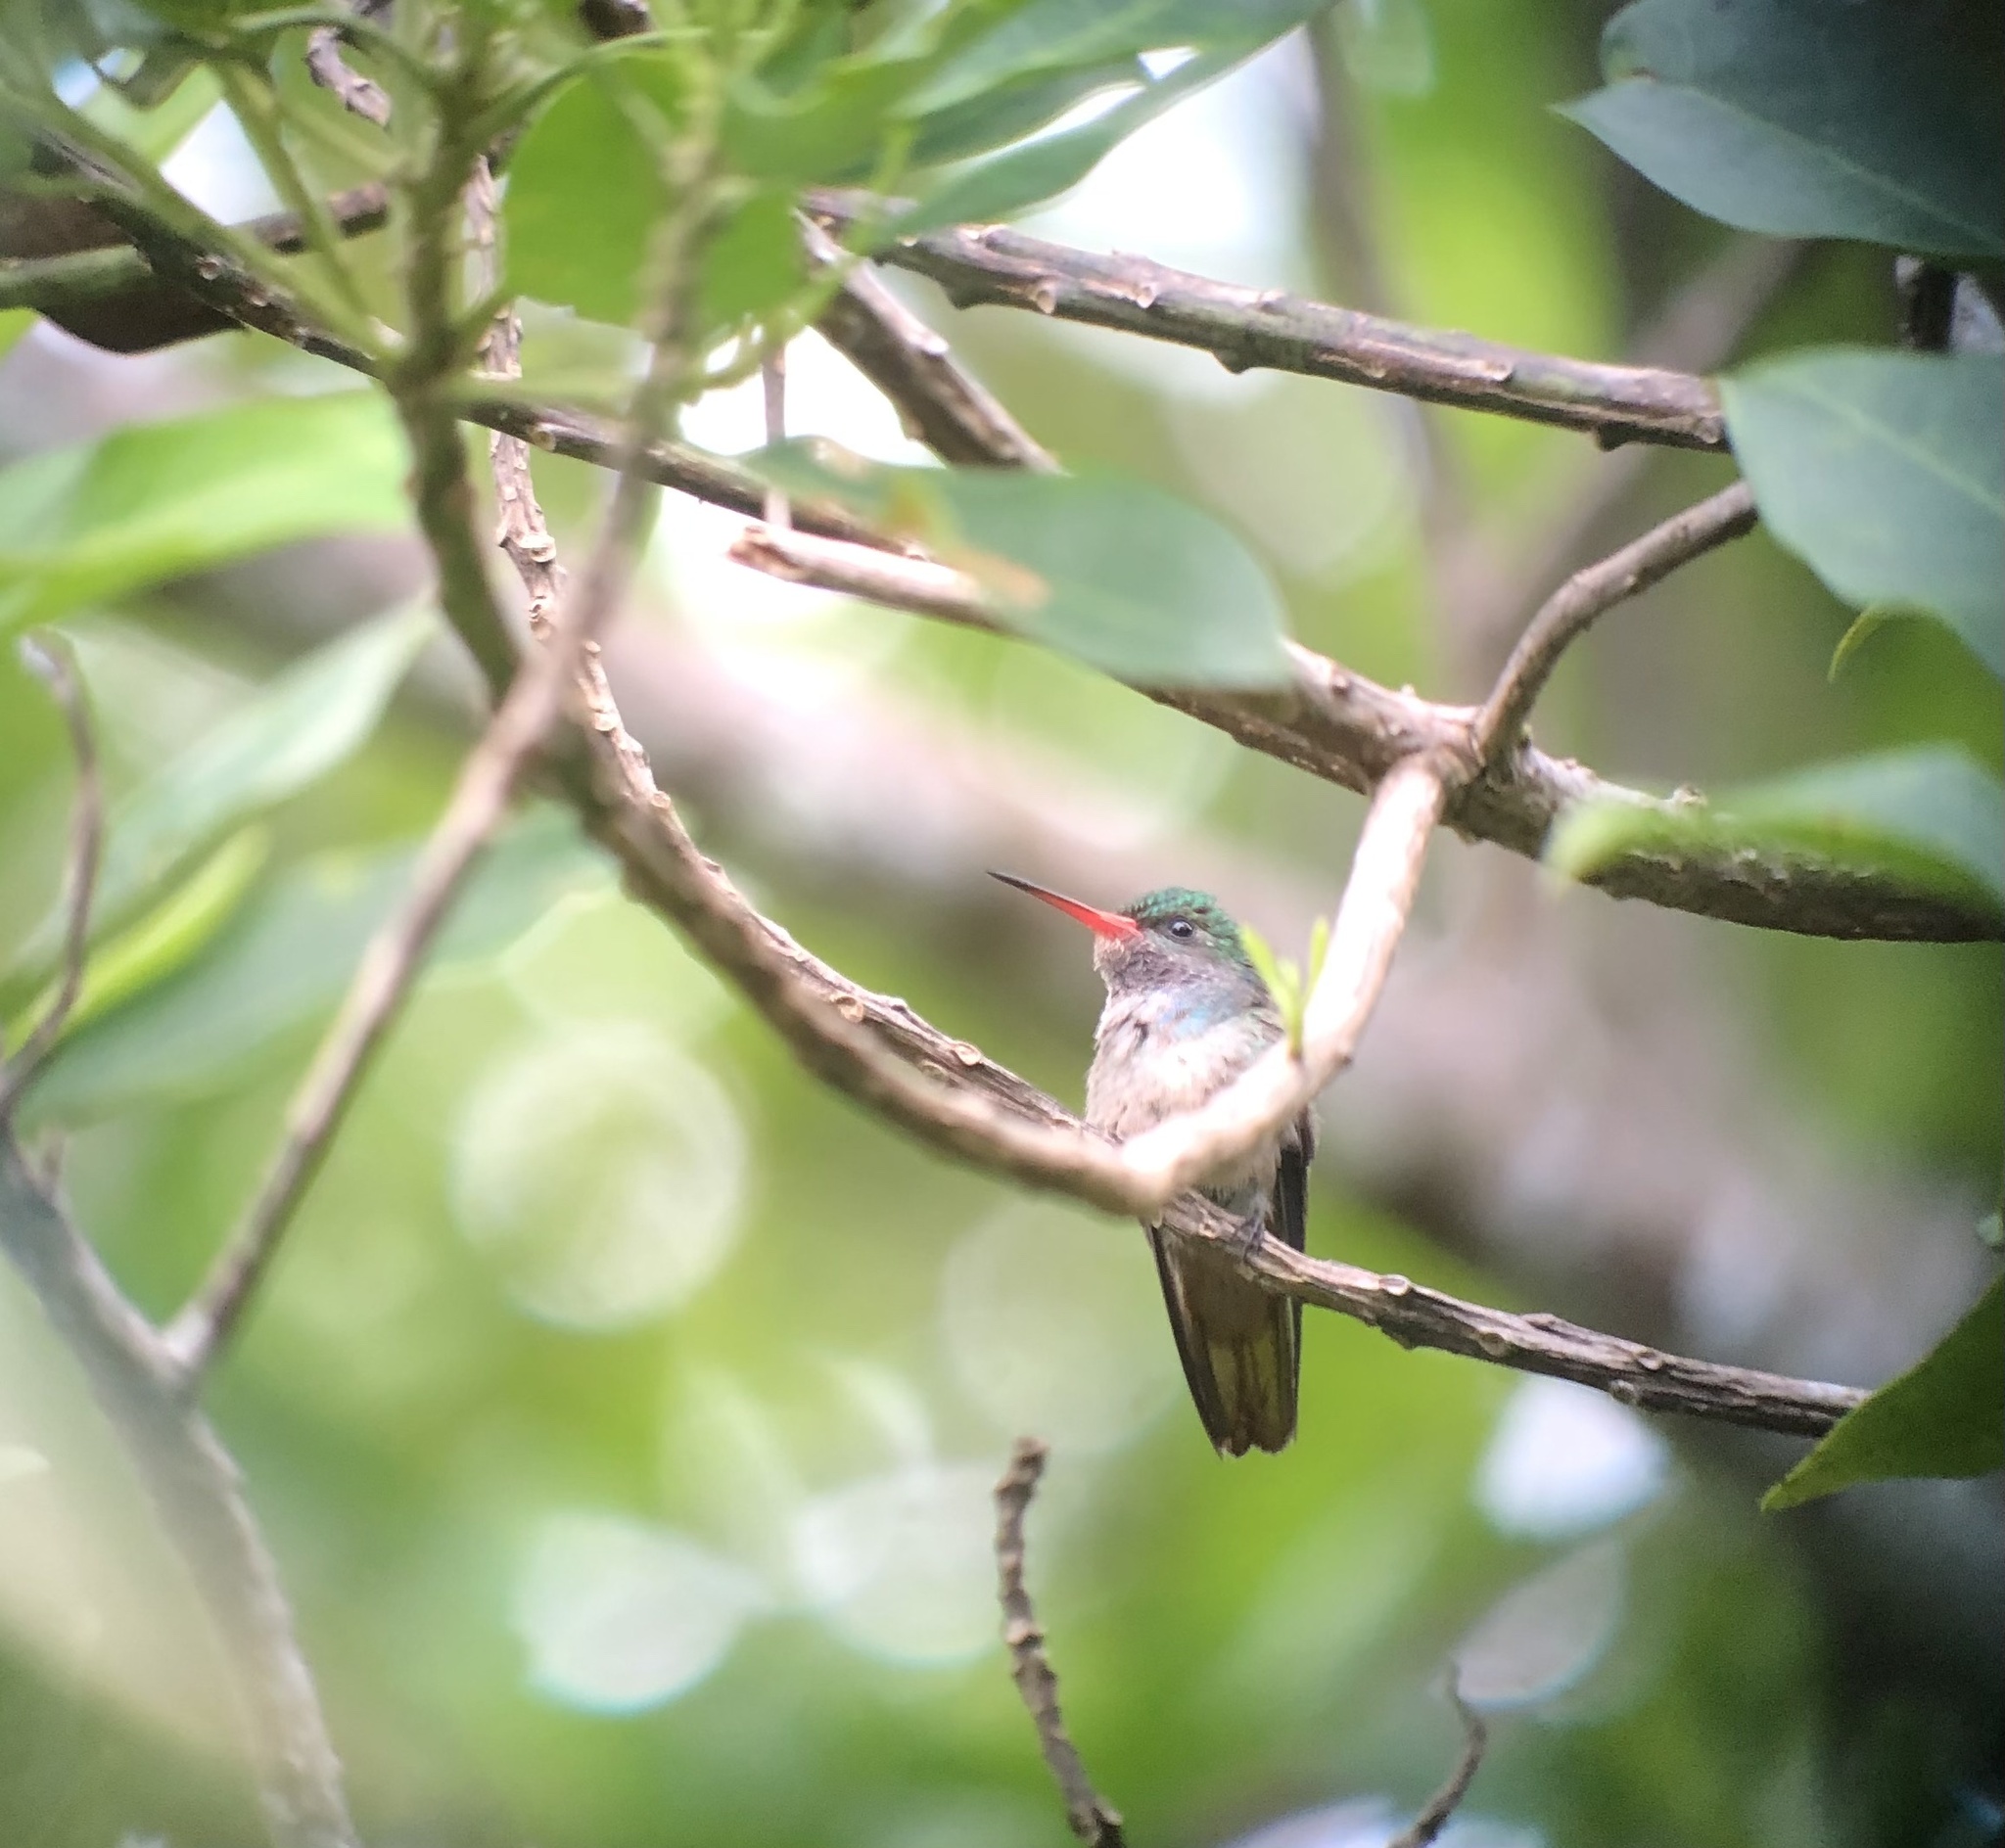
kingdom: Animalia
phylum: Chordata
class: Aves
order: Apodiformes
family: Trochilidae
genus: Chlorestes
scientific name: Chlorestes eliciae
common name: Blue-throated sapphire
